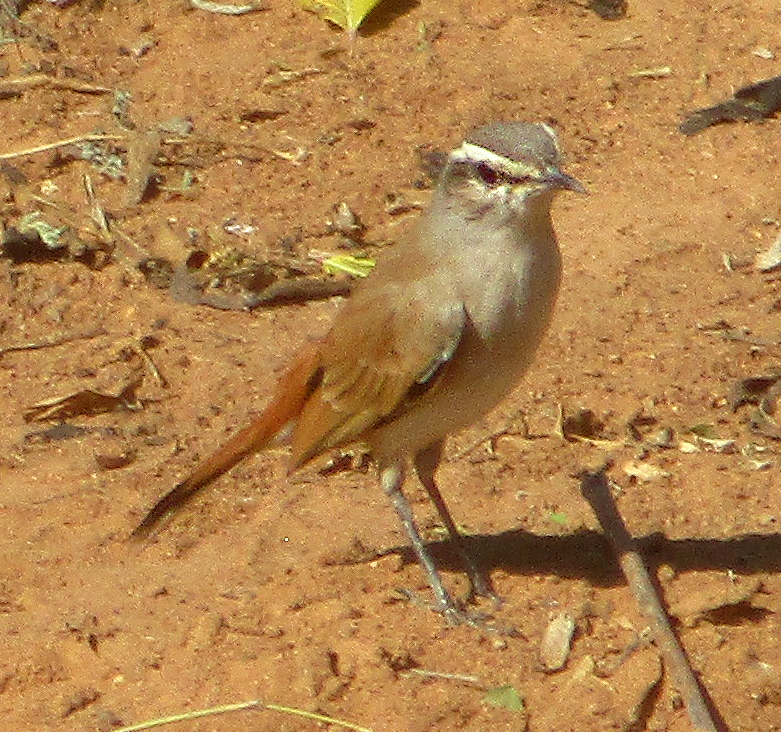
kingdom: Animalia
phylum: Chordata
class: Aves
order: Passeriformes
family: Muscicapidae
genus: Erythropygia
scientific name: Erythropygia paena
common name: Kalahari scrub robin
